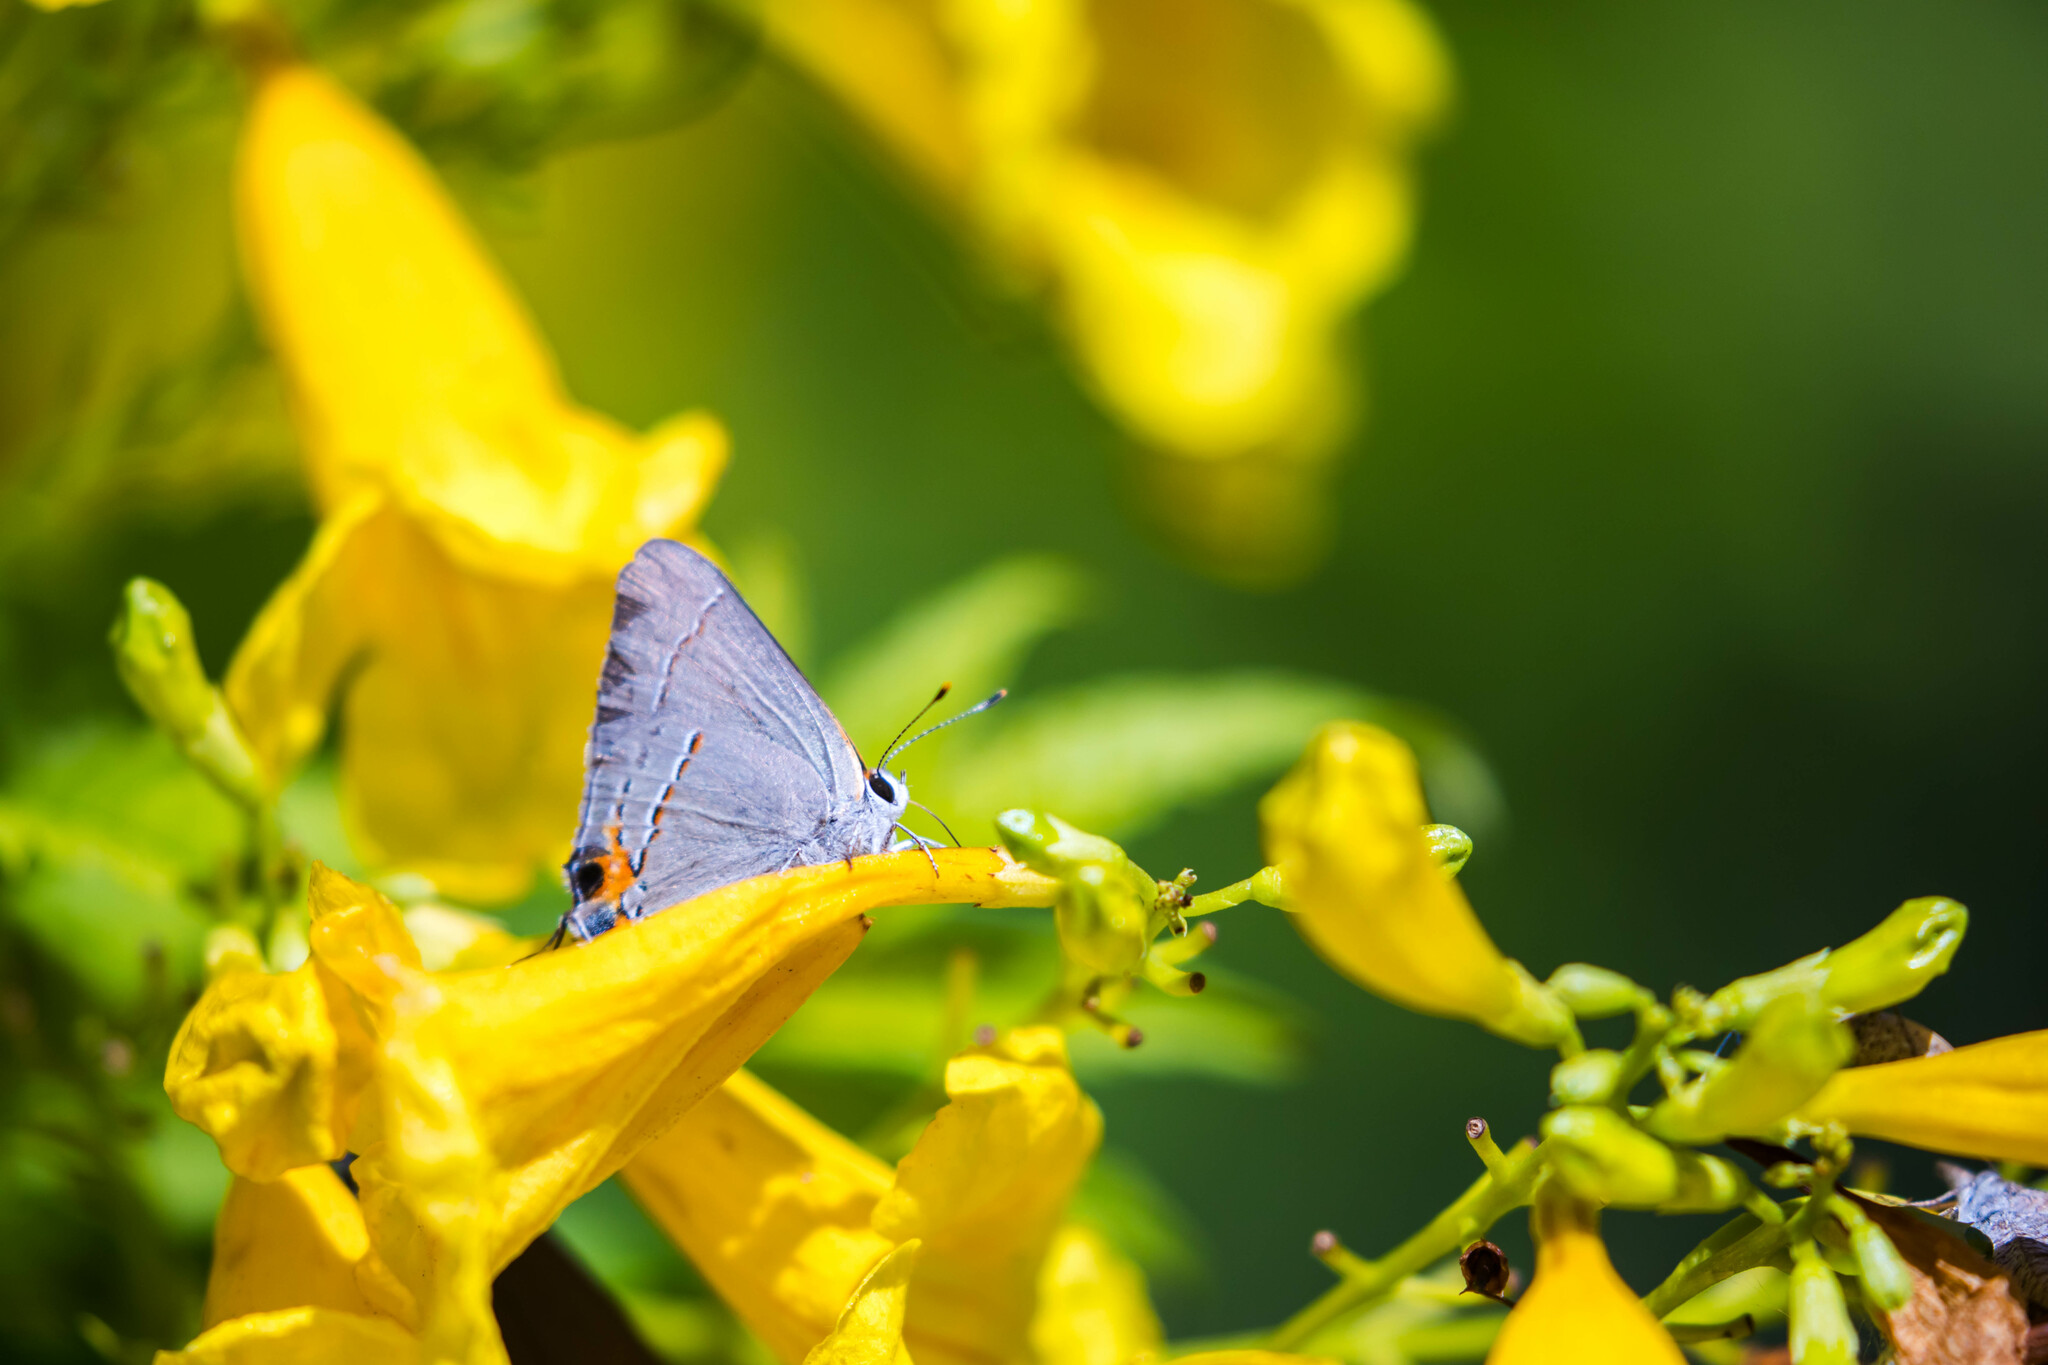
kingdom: Animalia
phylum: Arthropoda
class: Insecta
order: Lepidoptera
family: Lycaenidae
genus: Strymon
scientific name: Strymon melinus
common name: Gray hairstreak
